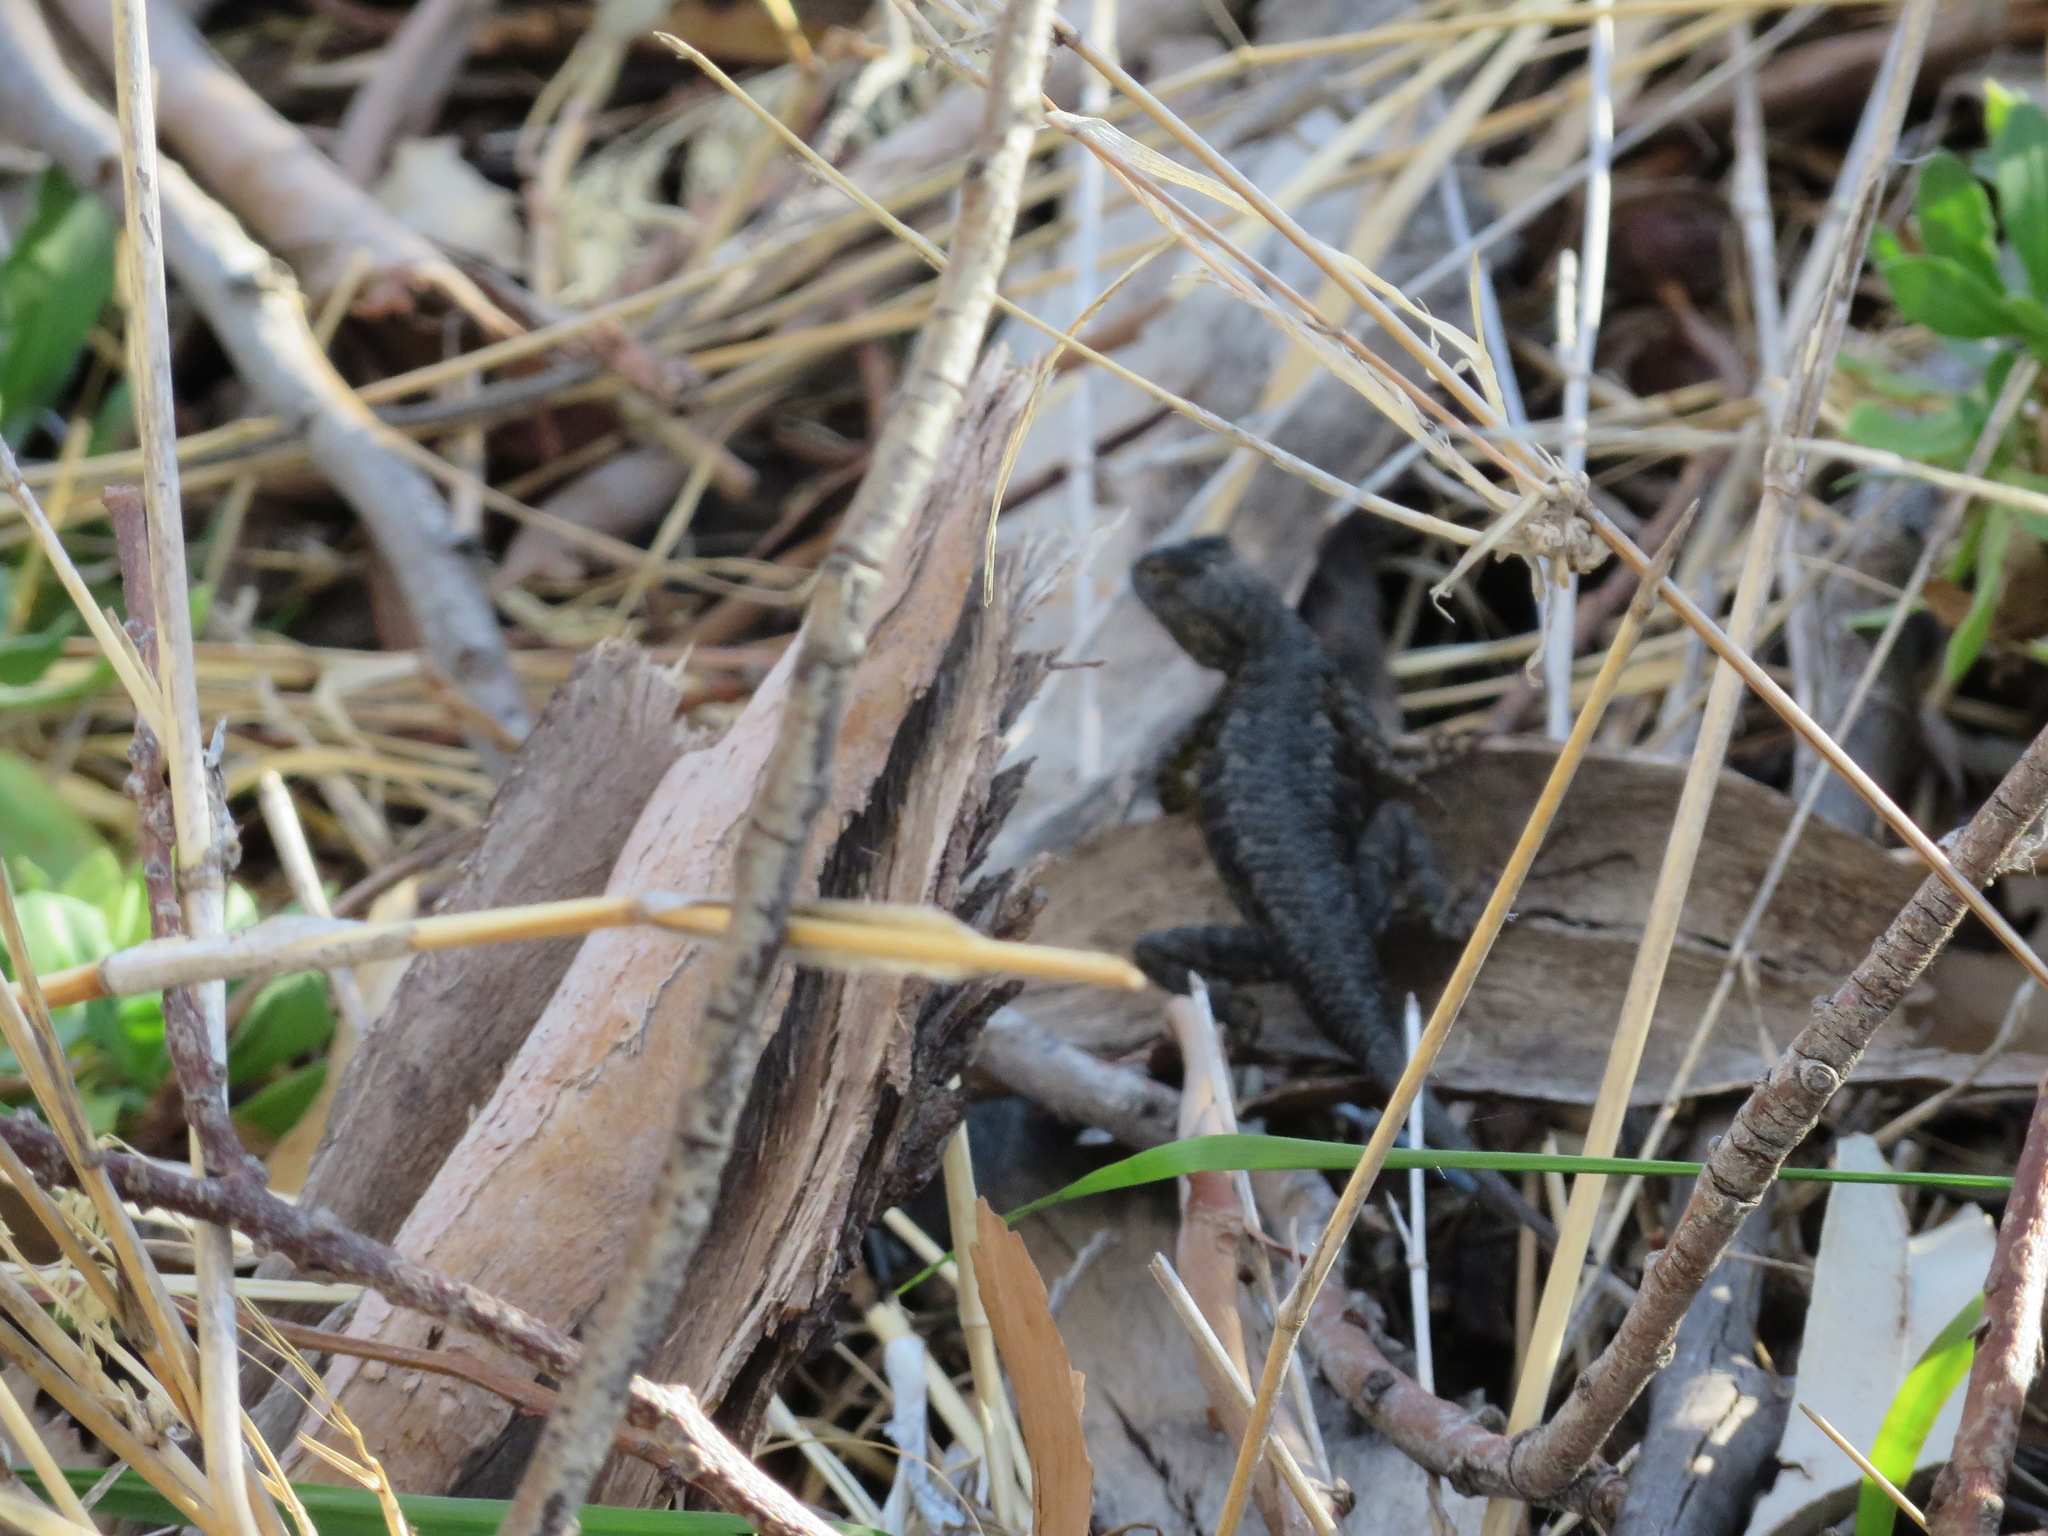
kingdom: Animalia
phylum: Chordata
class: Squamata
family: Phrynosomatidae
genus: Sceloporus
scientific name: Sceloporus occidentalis
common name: Western fence lizard
